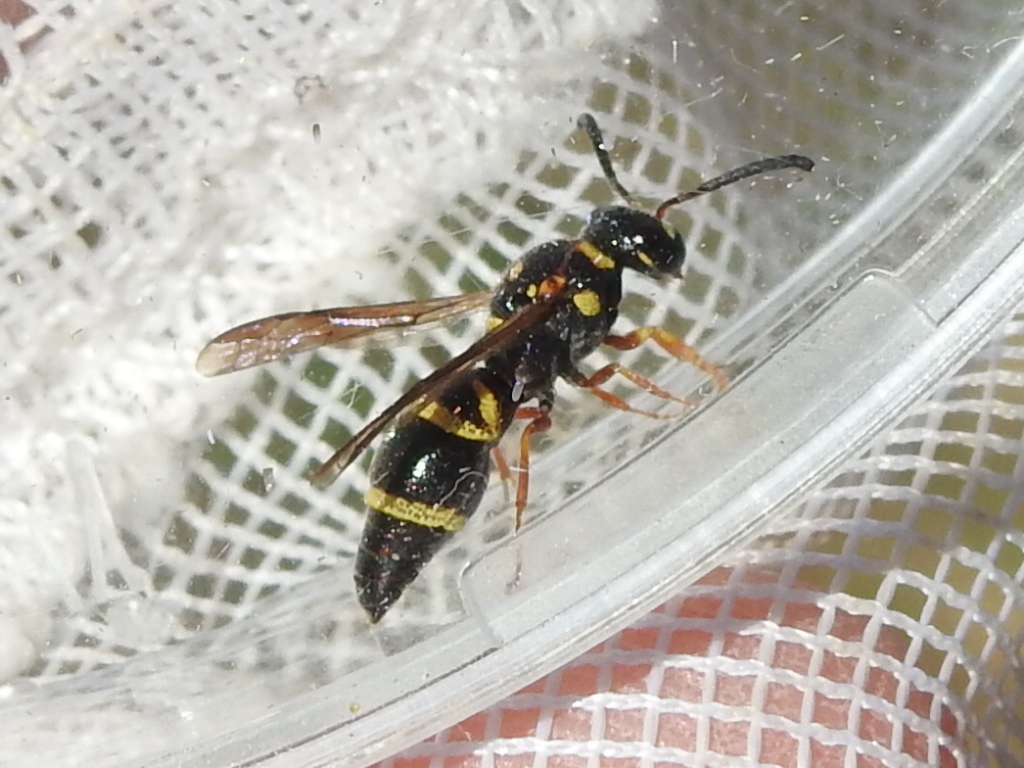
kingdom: Animalia
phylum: Arthropoda
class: Insecta
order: Hymenoptera
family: Eumenidae
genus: Parancistrocerus
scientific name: Parancistrocerus fulvipes
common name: Potter wasp
